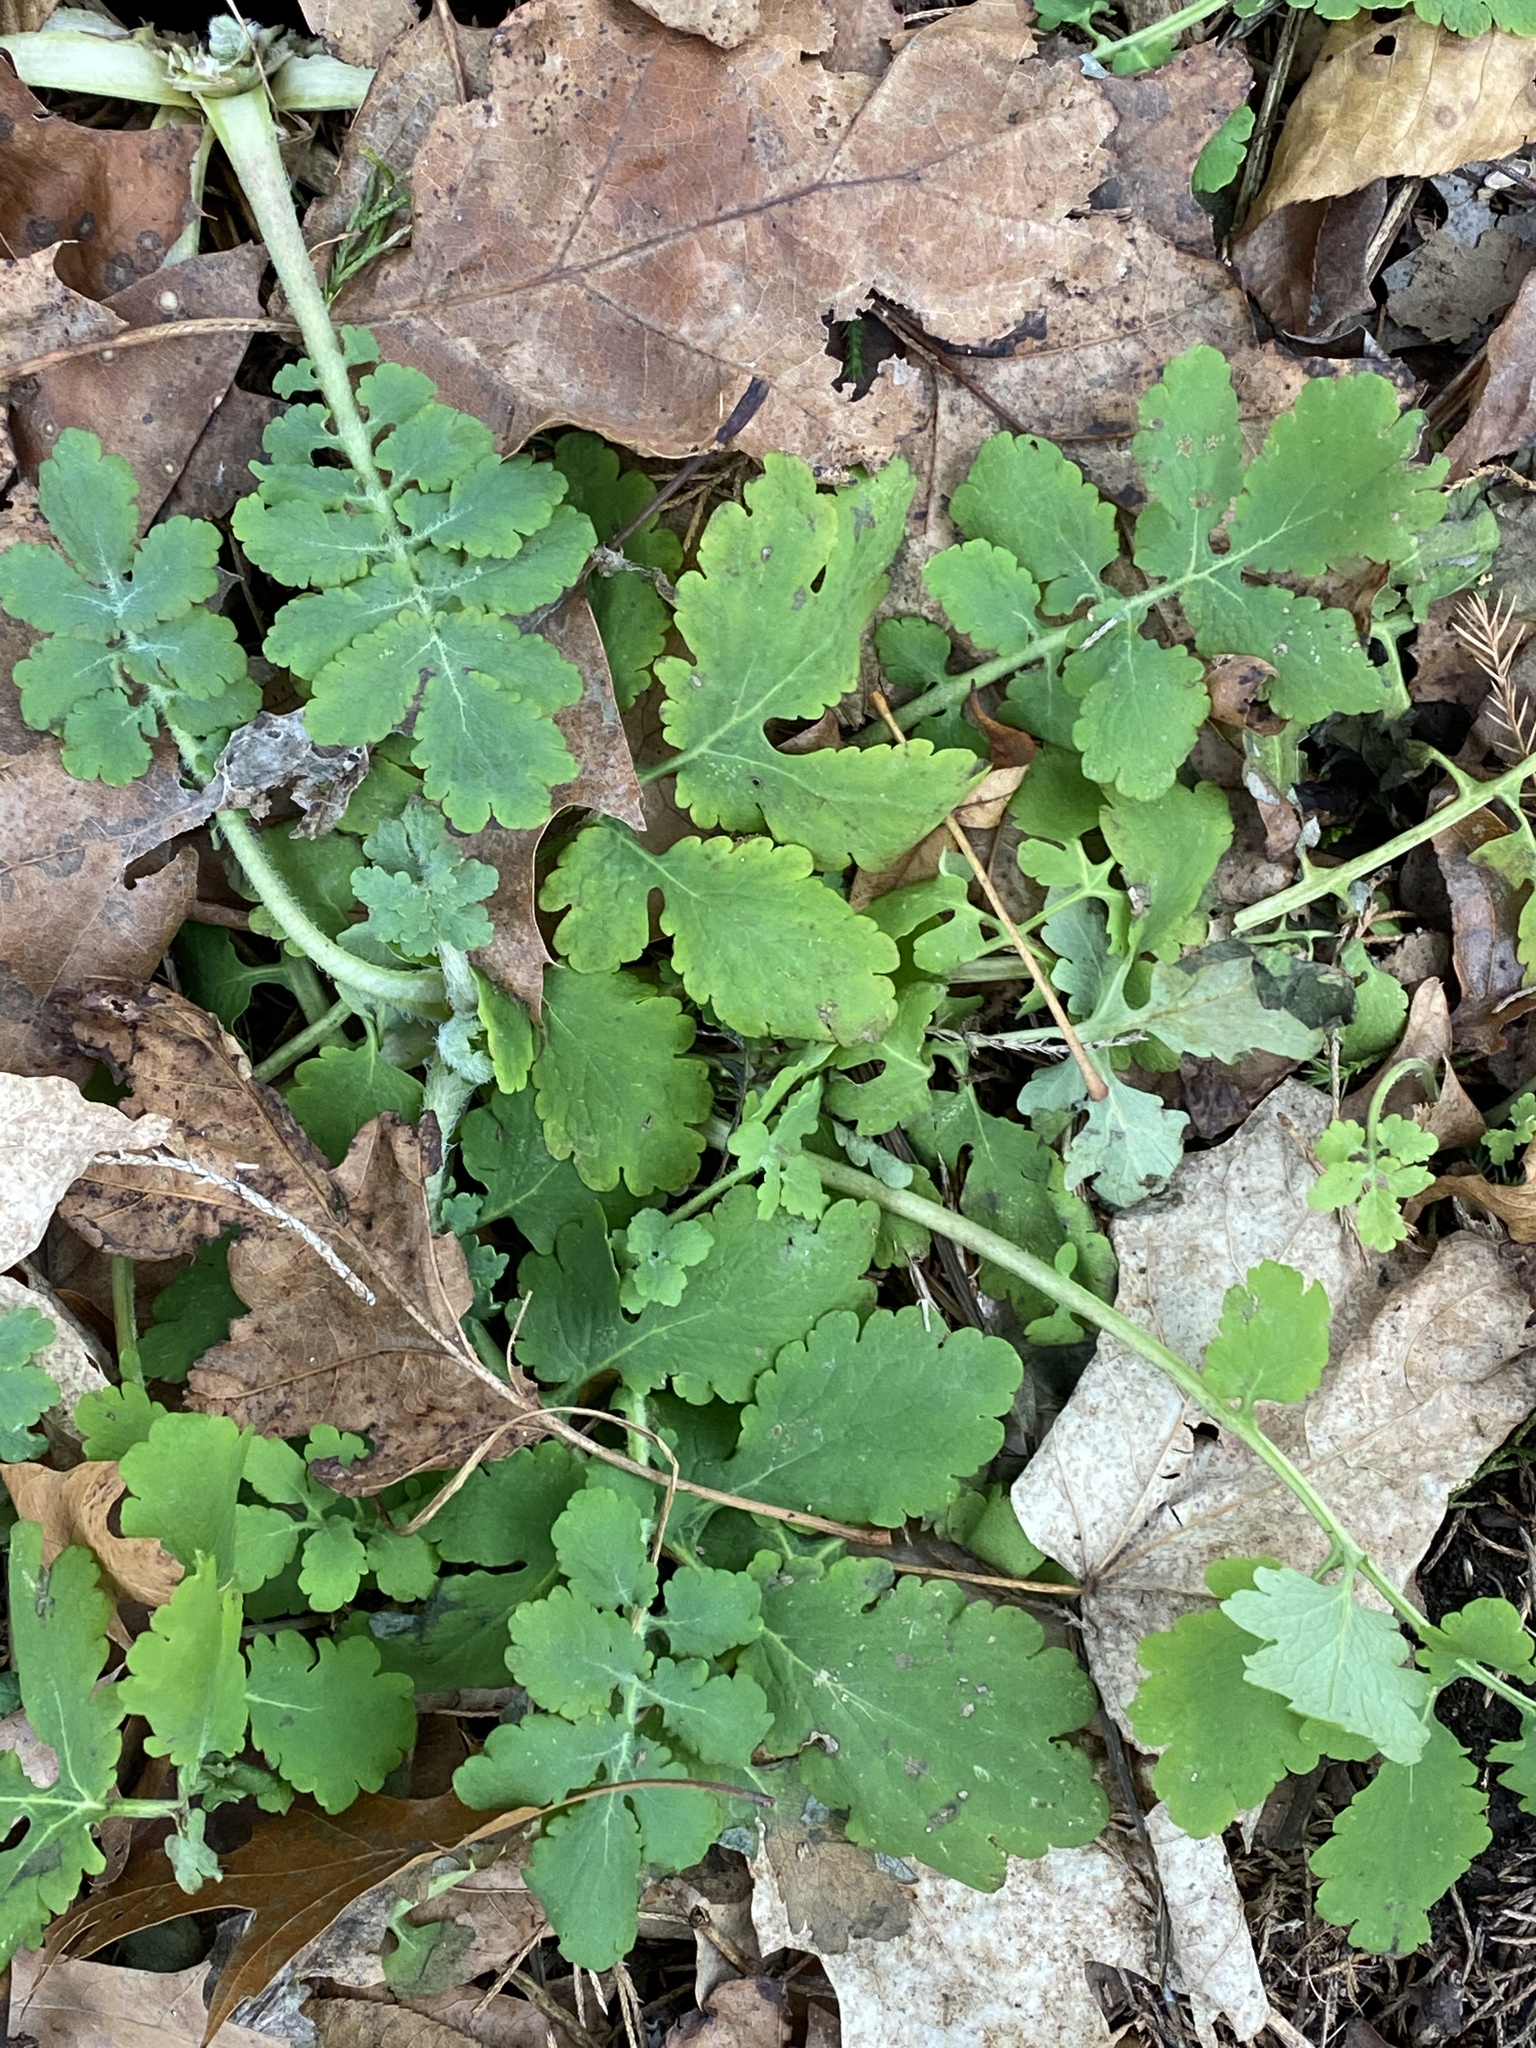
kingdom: Plantae
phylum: Tracheophyta
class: Magnoliopsida
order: Ranunculales
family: Papaveraceae
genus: Chelidonium
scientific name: Chelidonium majus
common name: Greater celandine
